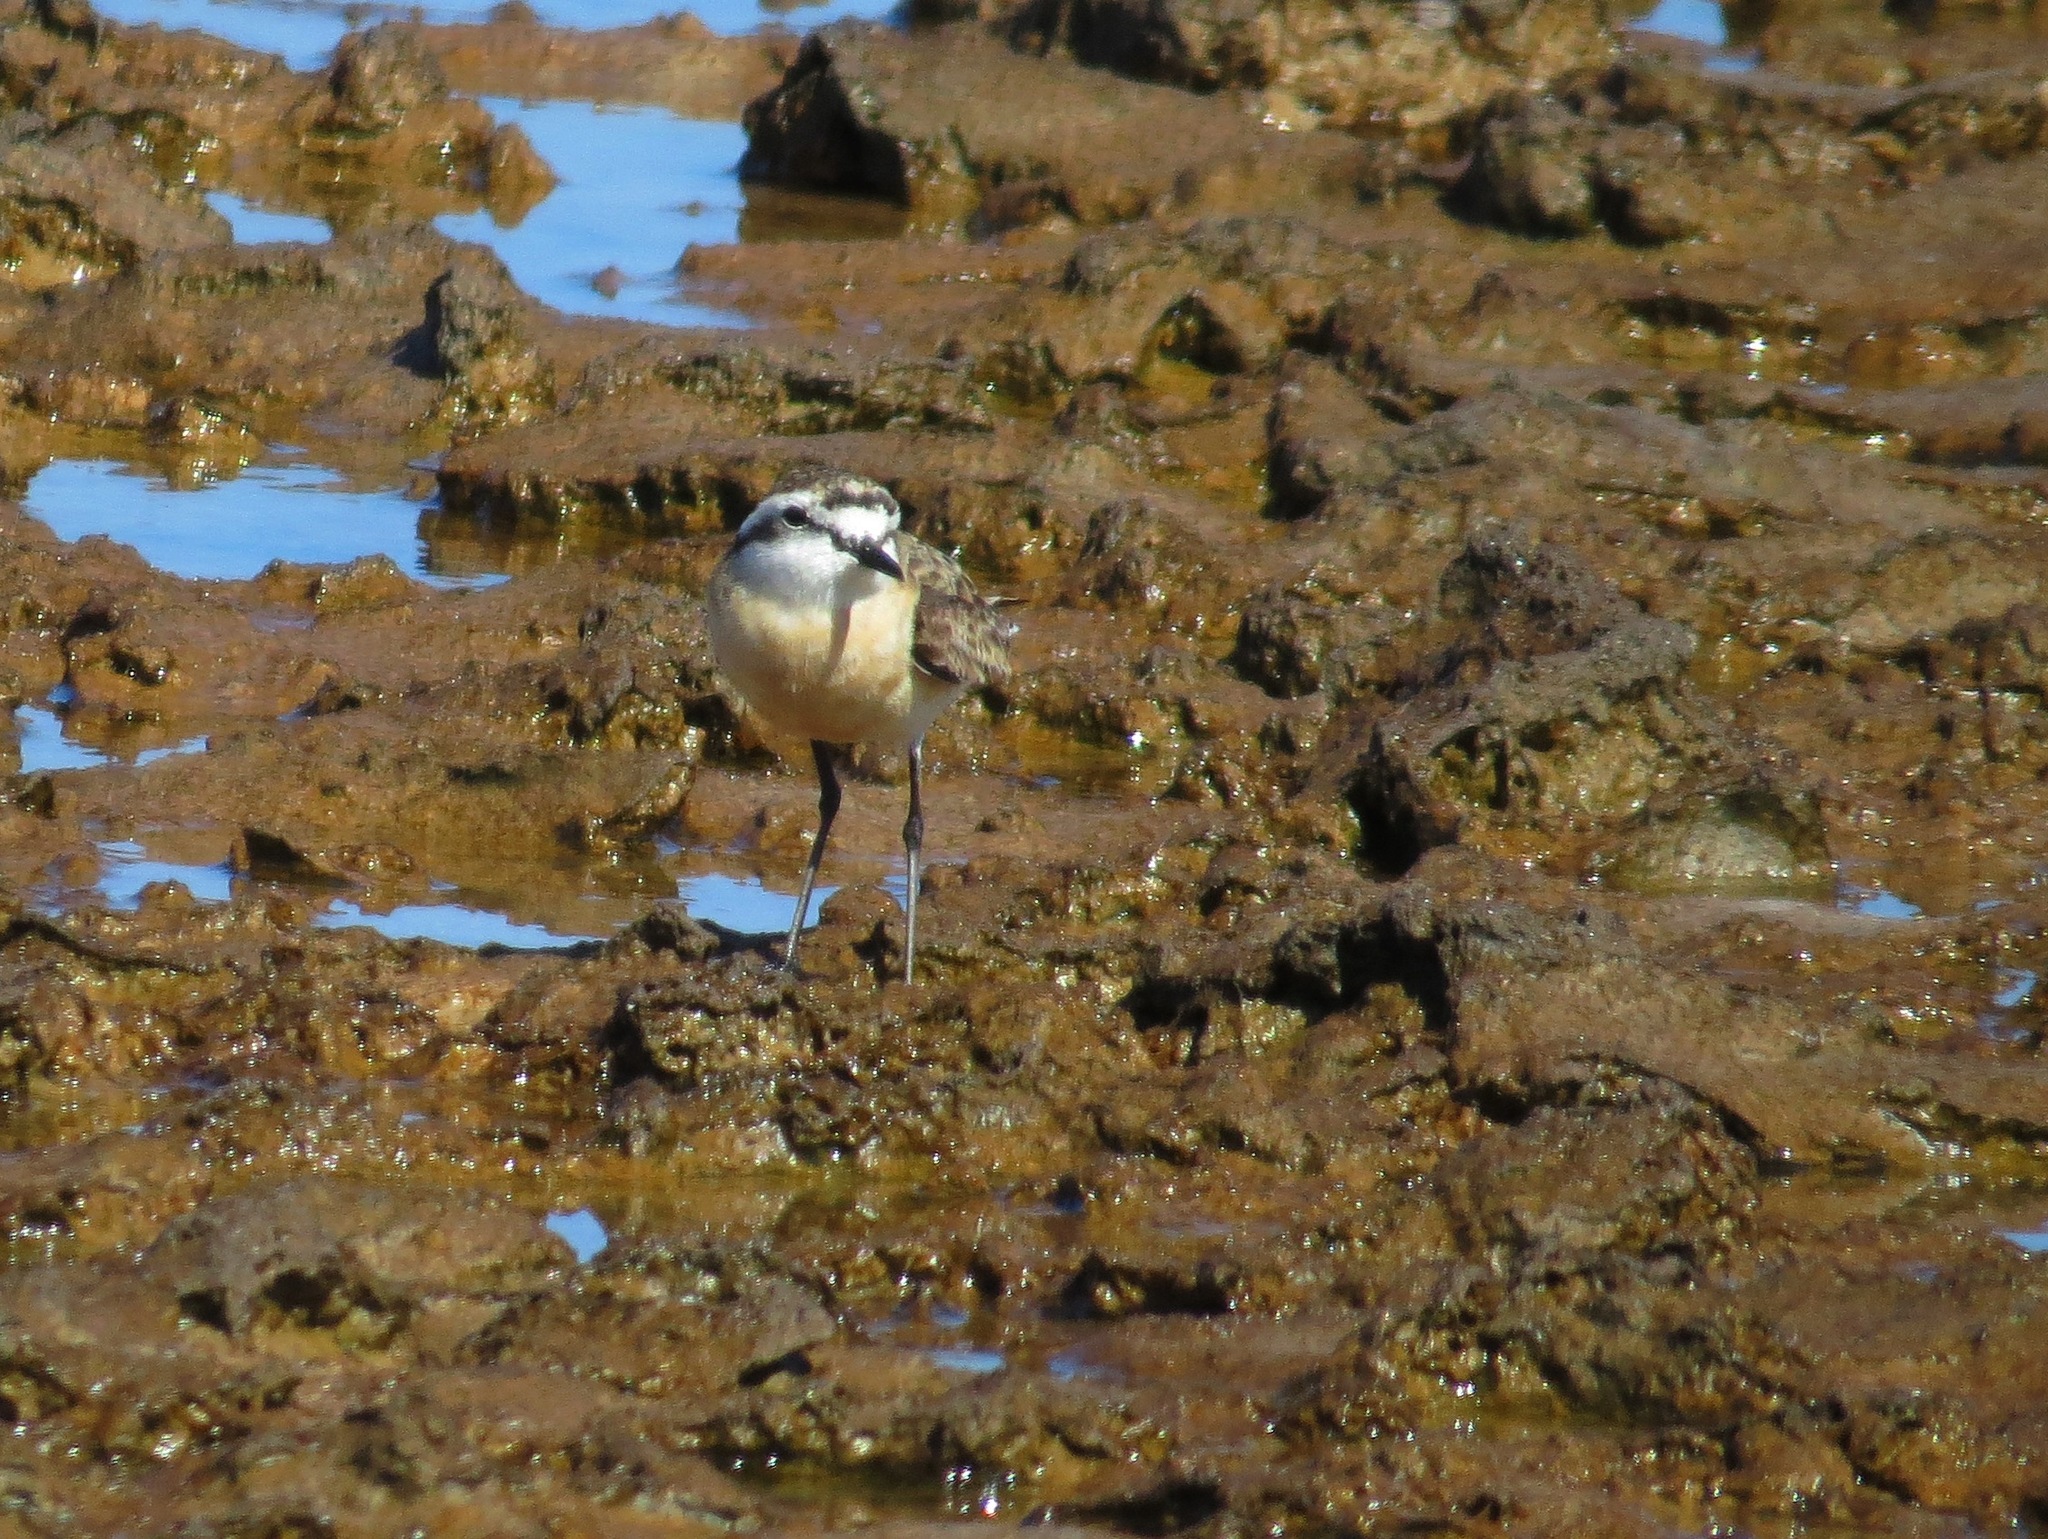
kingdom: Animalia
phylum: Chordata
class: Aves
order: Charadriiformes
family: Charadriidae
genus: Anarhynchus
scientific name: Anarhynchus
